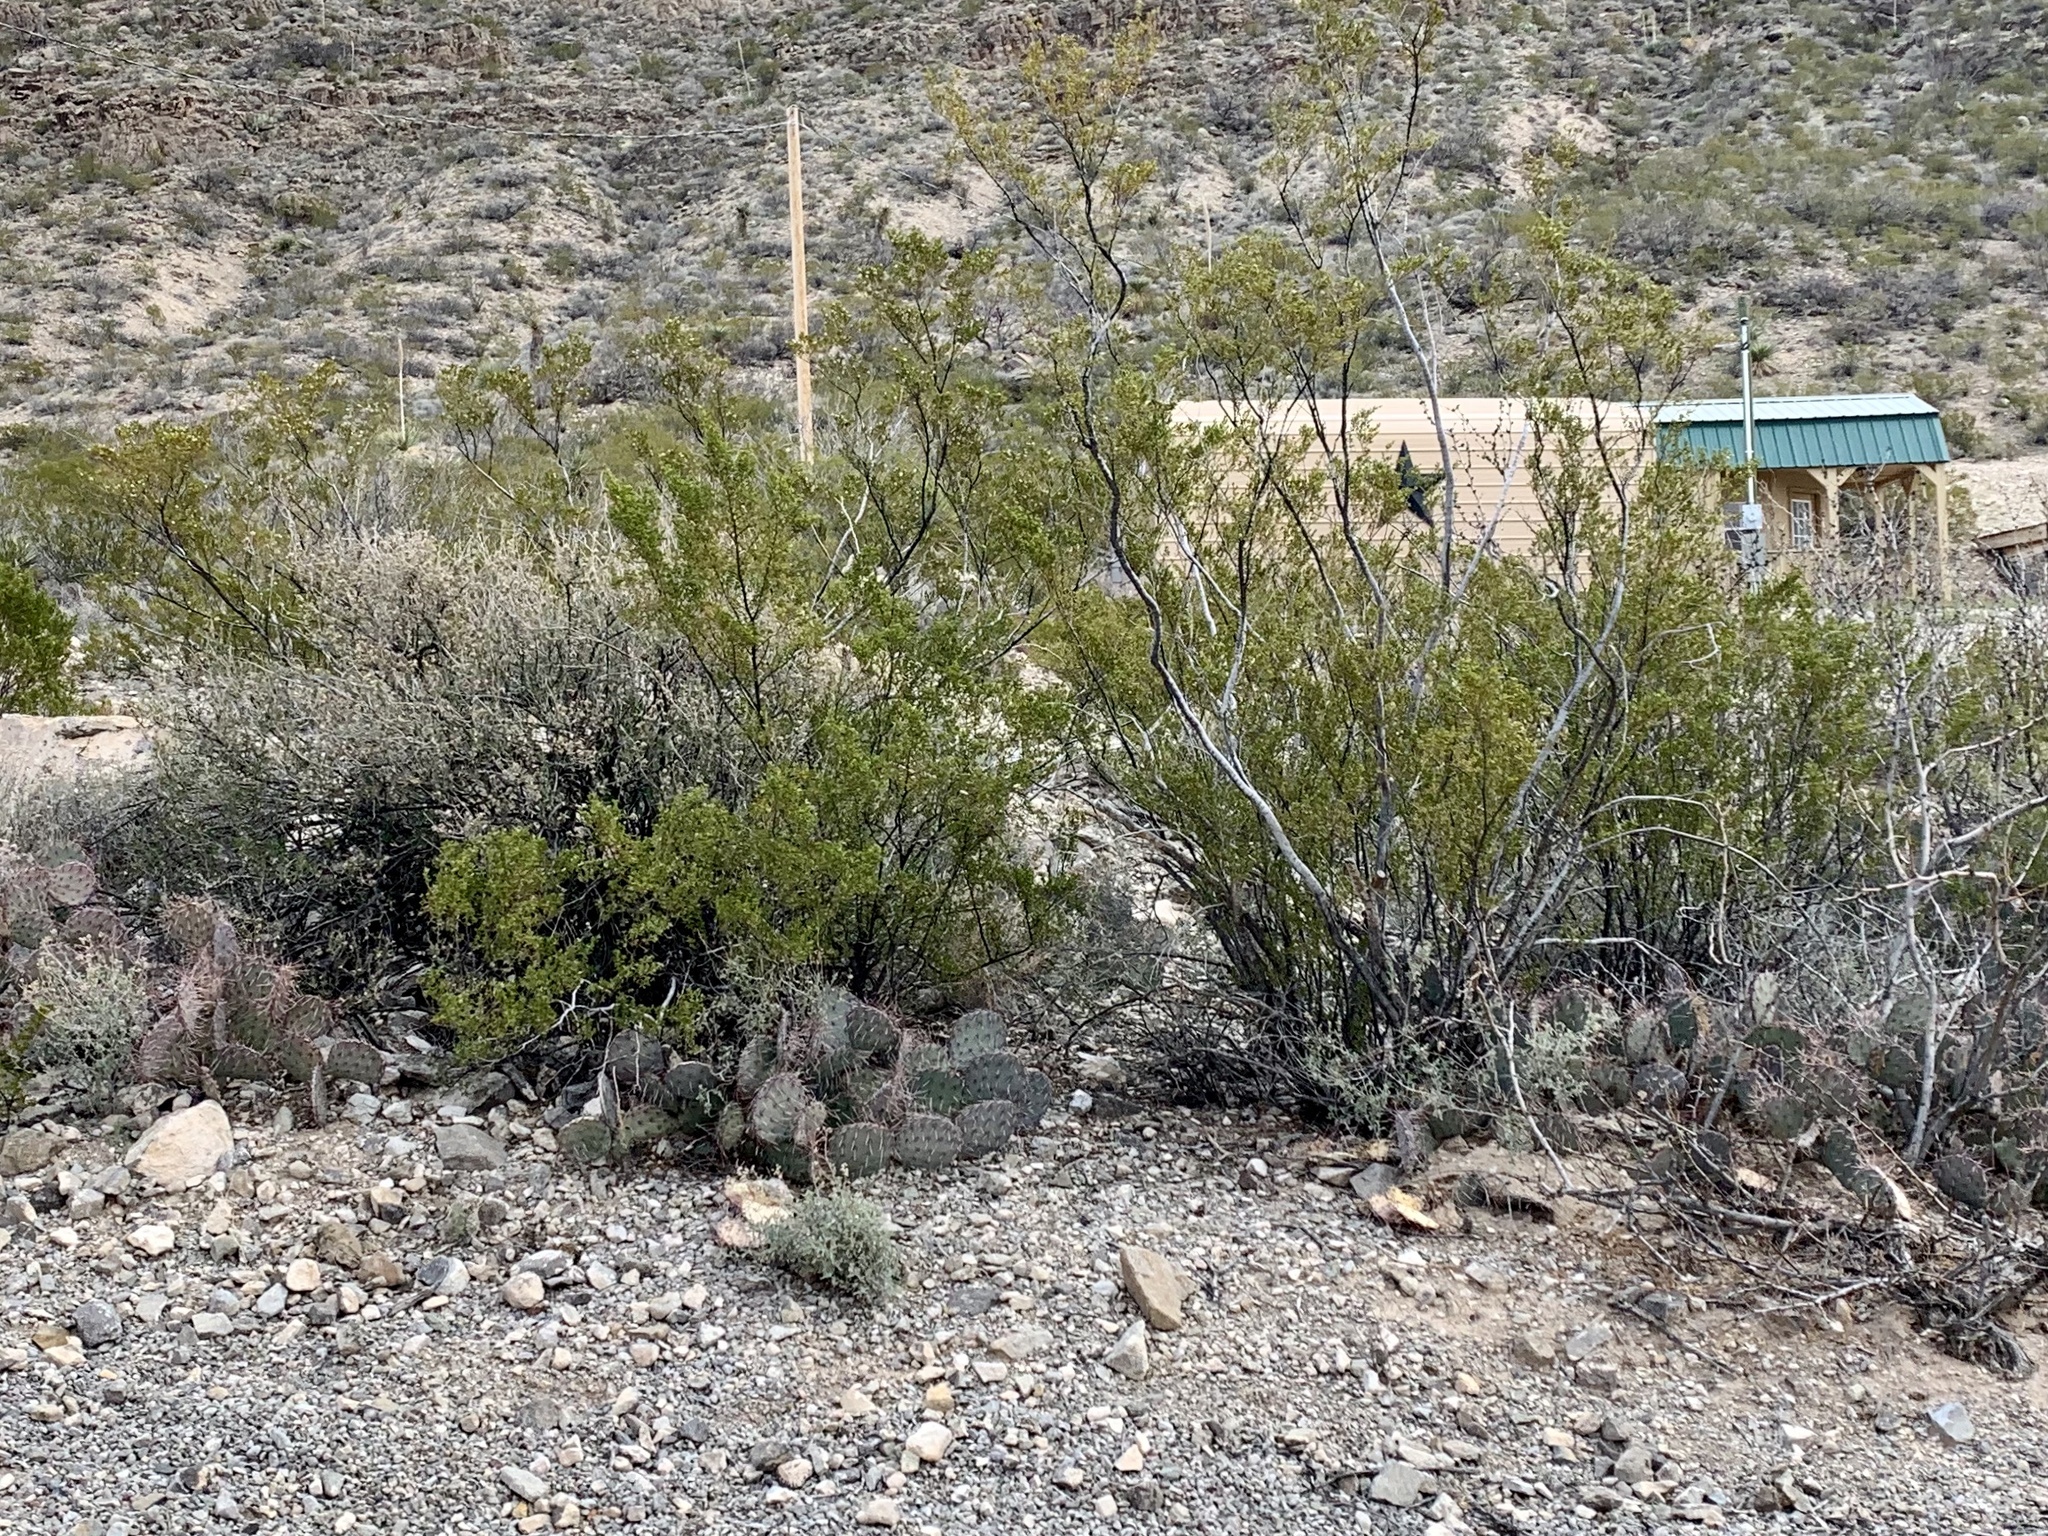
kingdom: Plantae
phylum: Tracheophyta
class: Magnoliopsida
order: Zygophyllales
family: Zygophyllaceae
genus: Larrea
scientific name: Larrea tridentata
